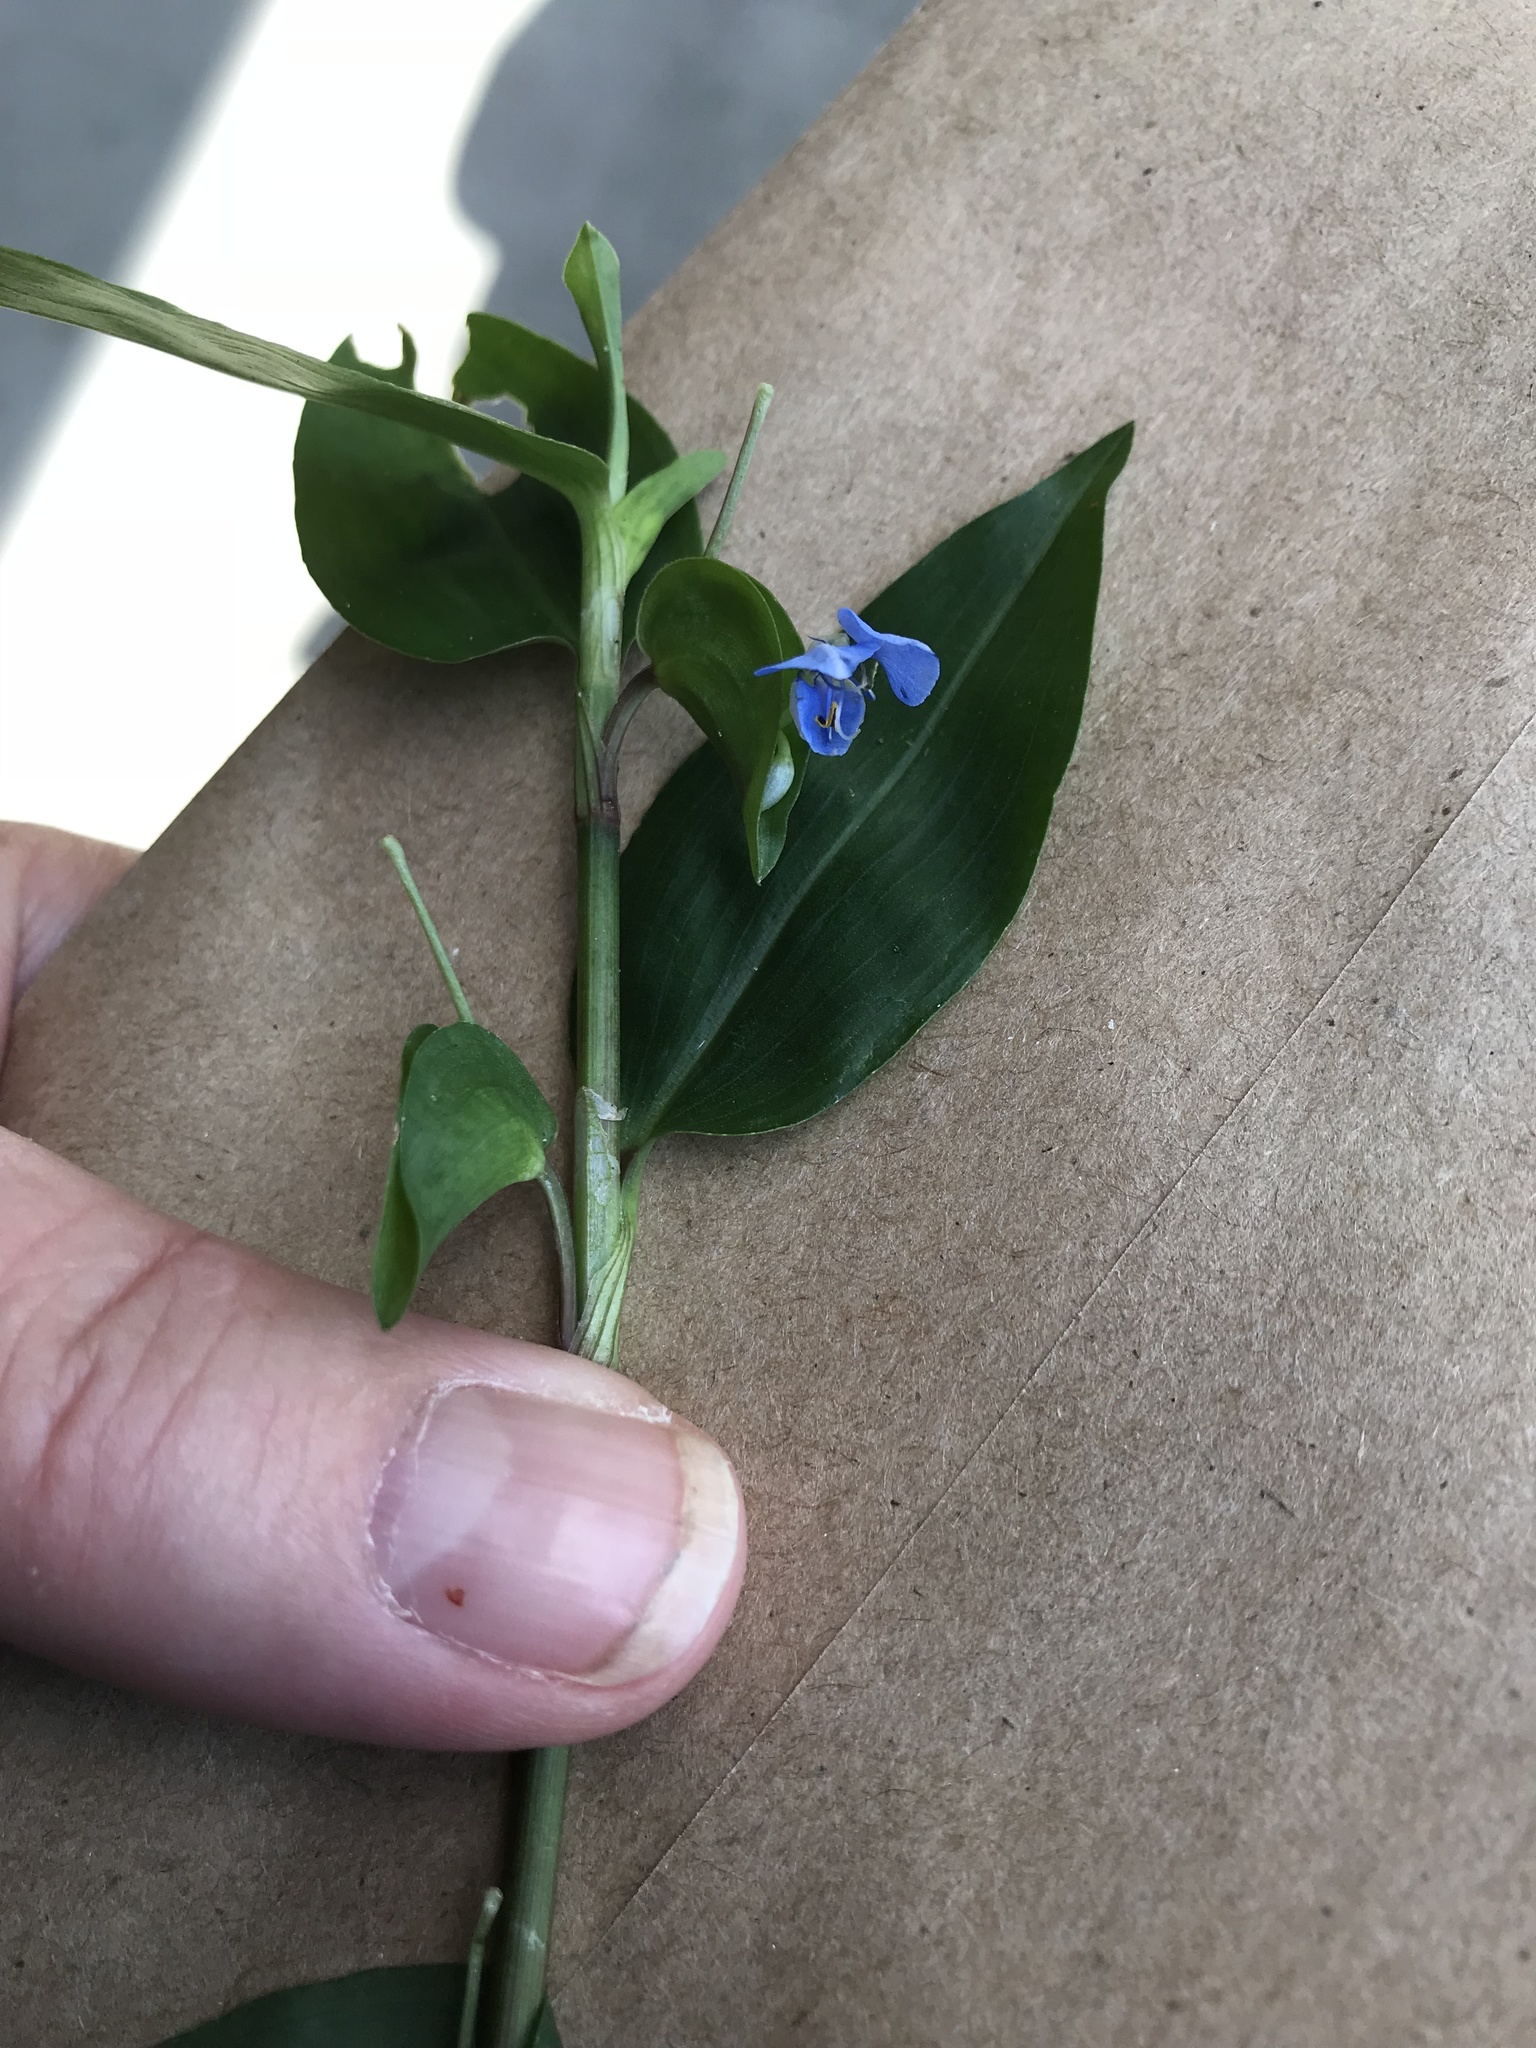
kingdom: Plantae
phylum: Tracheophyta
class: Liliopsida
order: Commelinales
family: Commelinaceae
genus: Commelina
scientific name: Commelina diffusa
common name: Climbing dayflower
